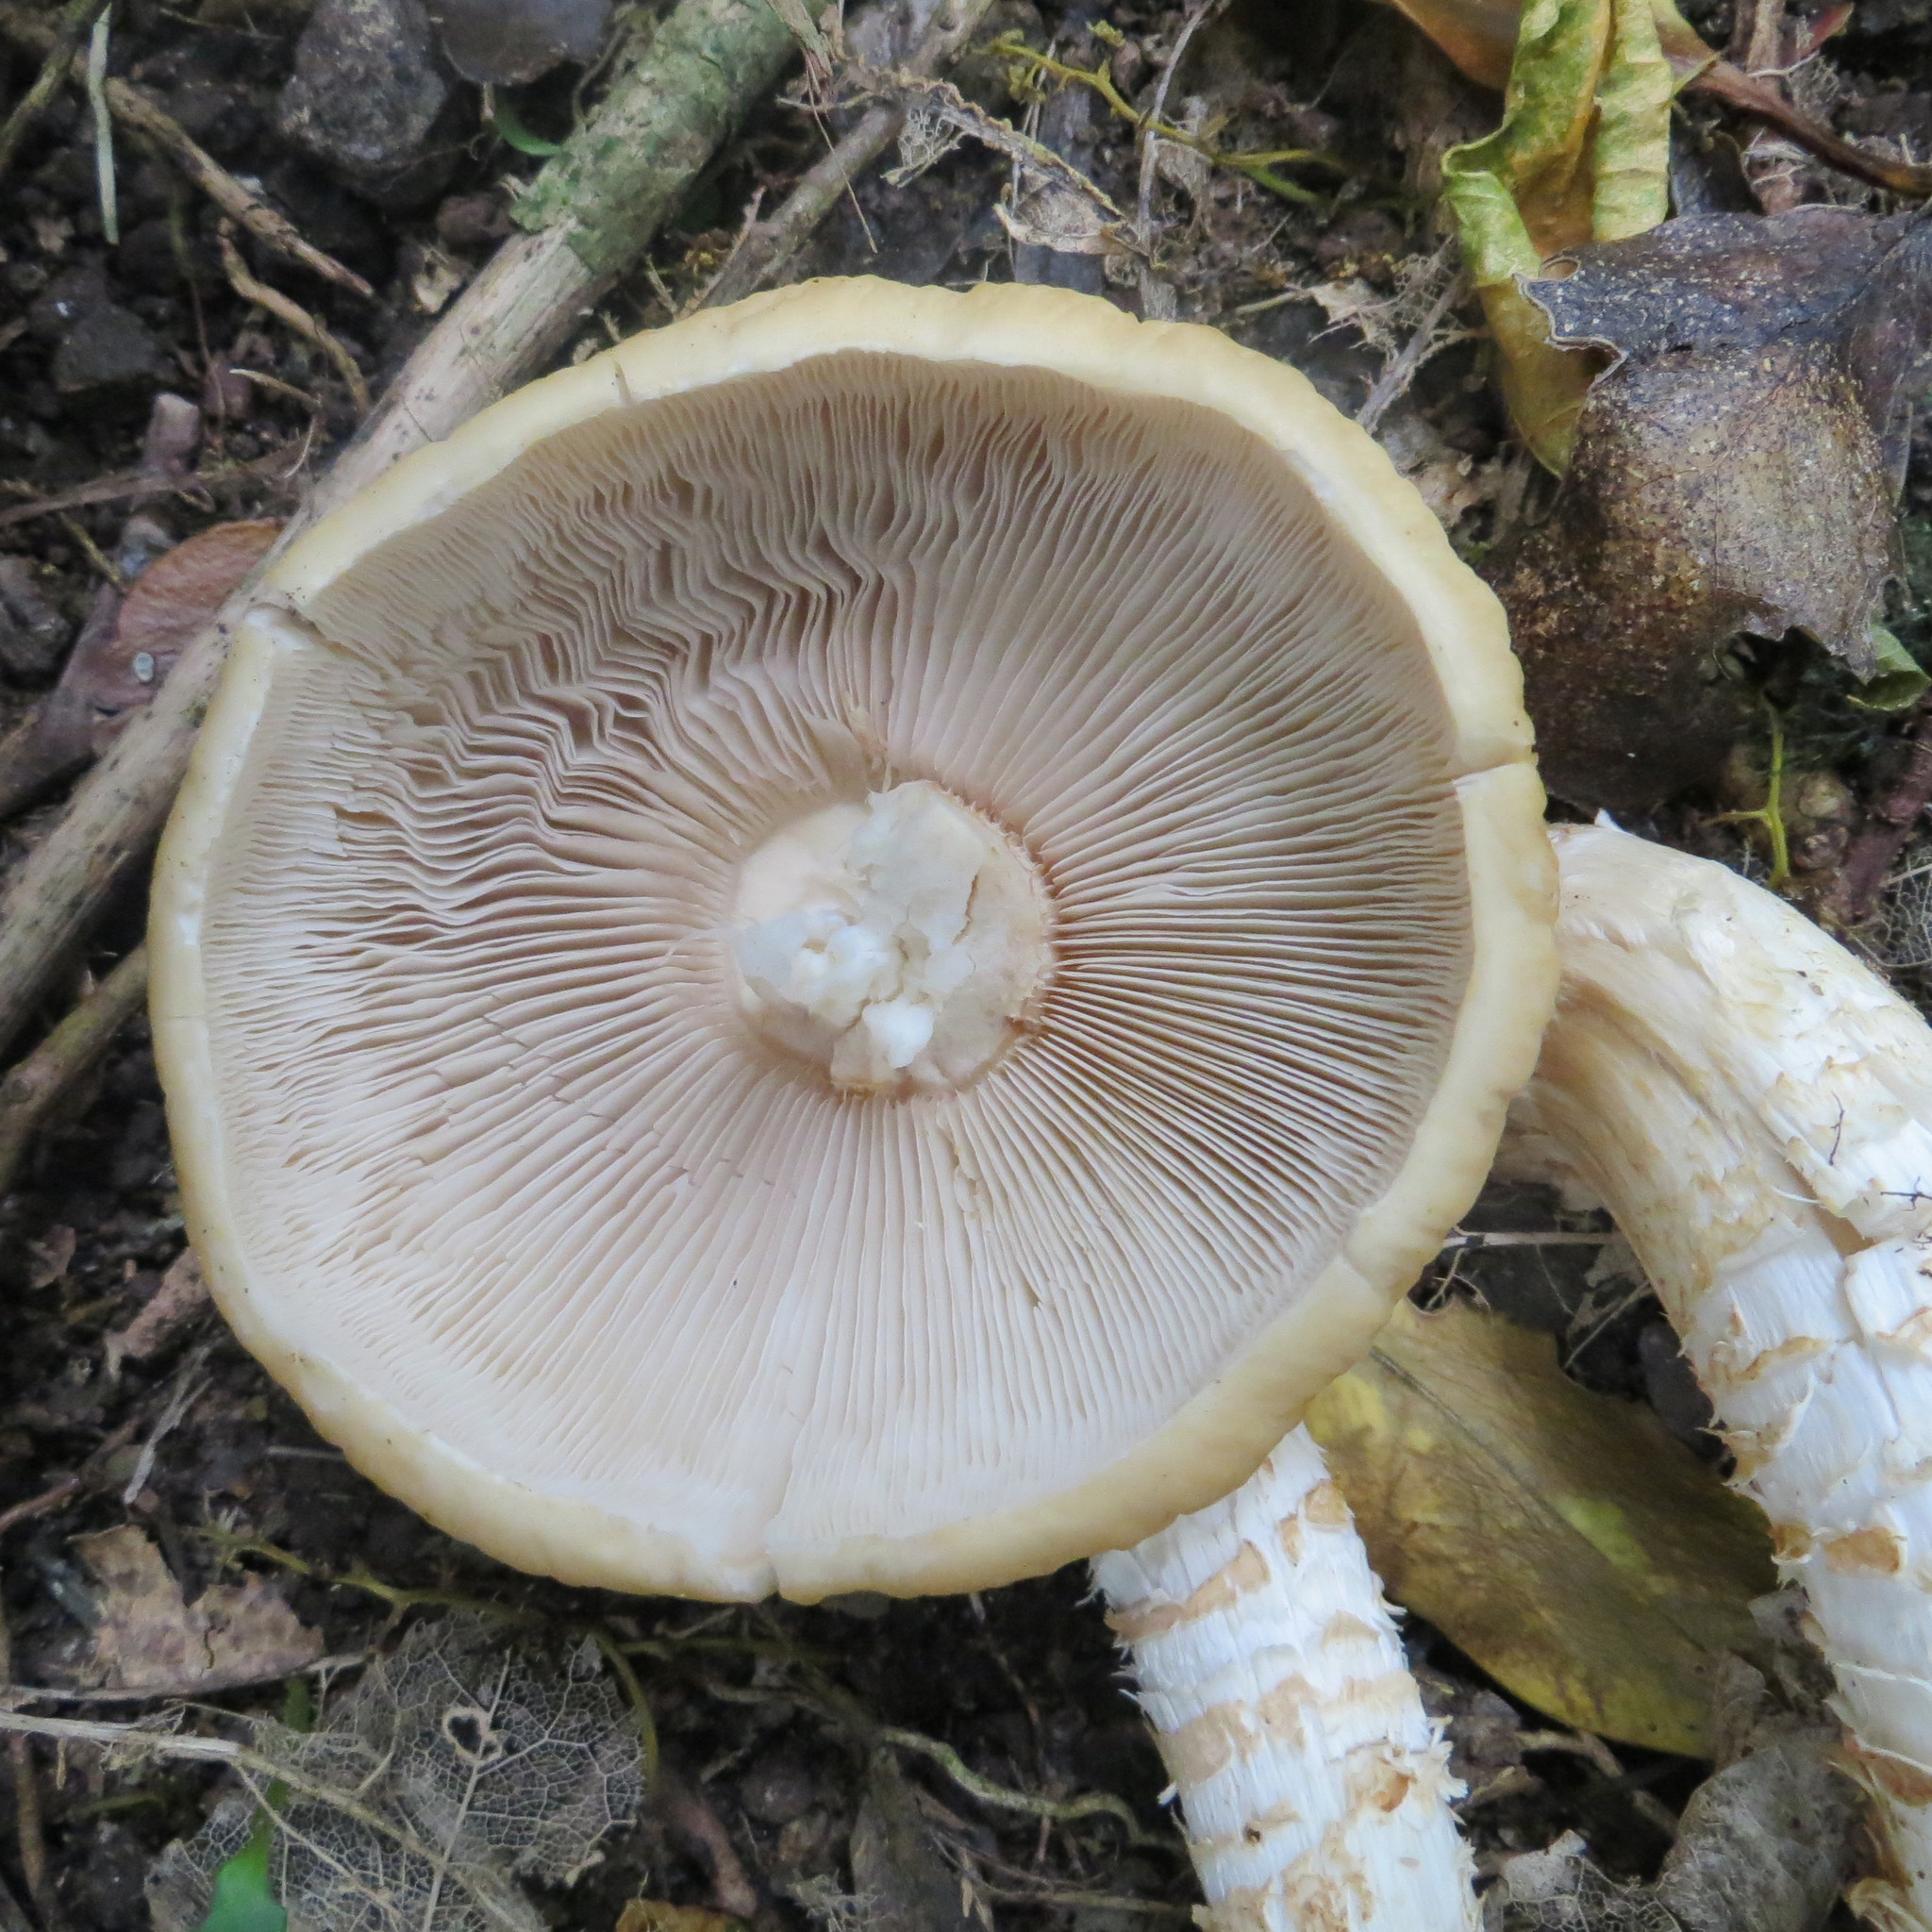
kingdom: Fungi
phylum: Basidiomycota
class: Agaricomycetes
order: Agaricales
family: Tubariaceae
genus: Cyclocybe
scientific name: Cyclocybe parasitica
